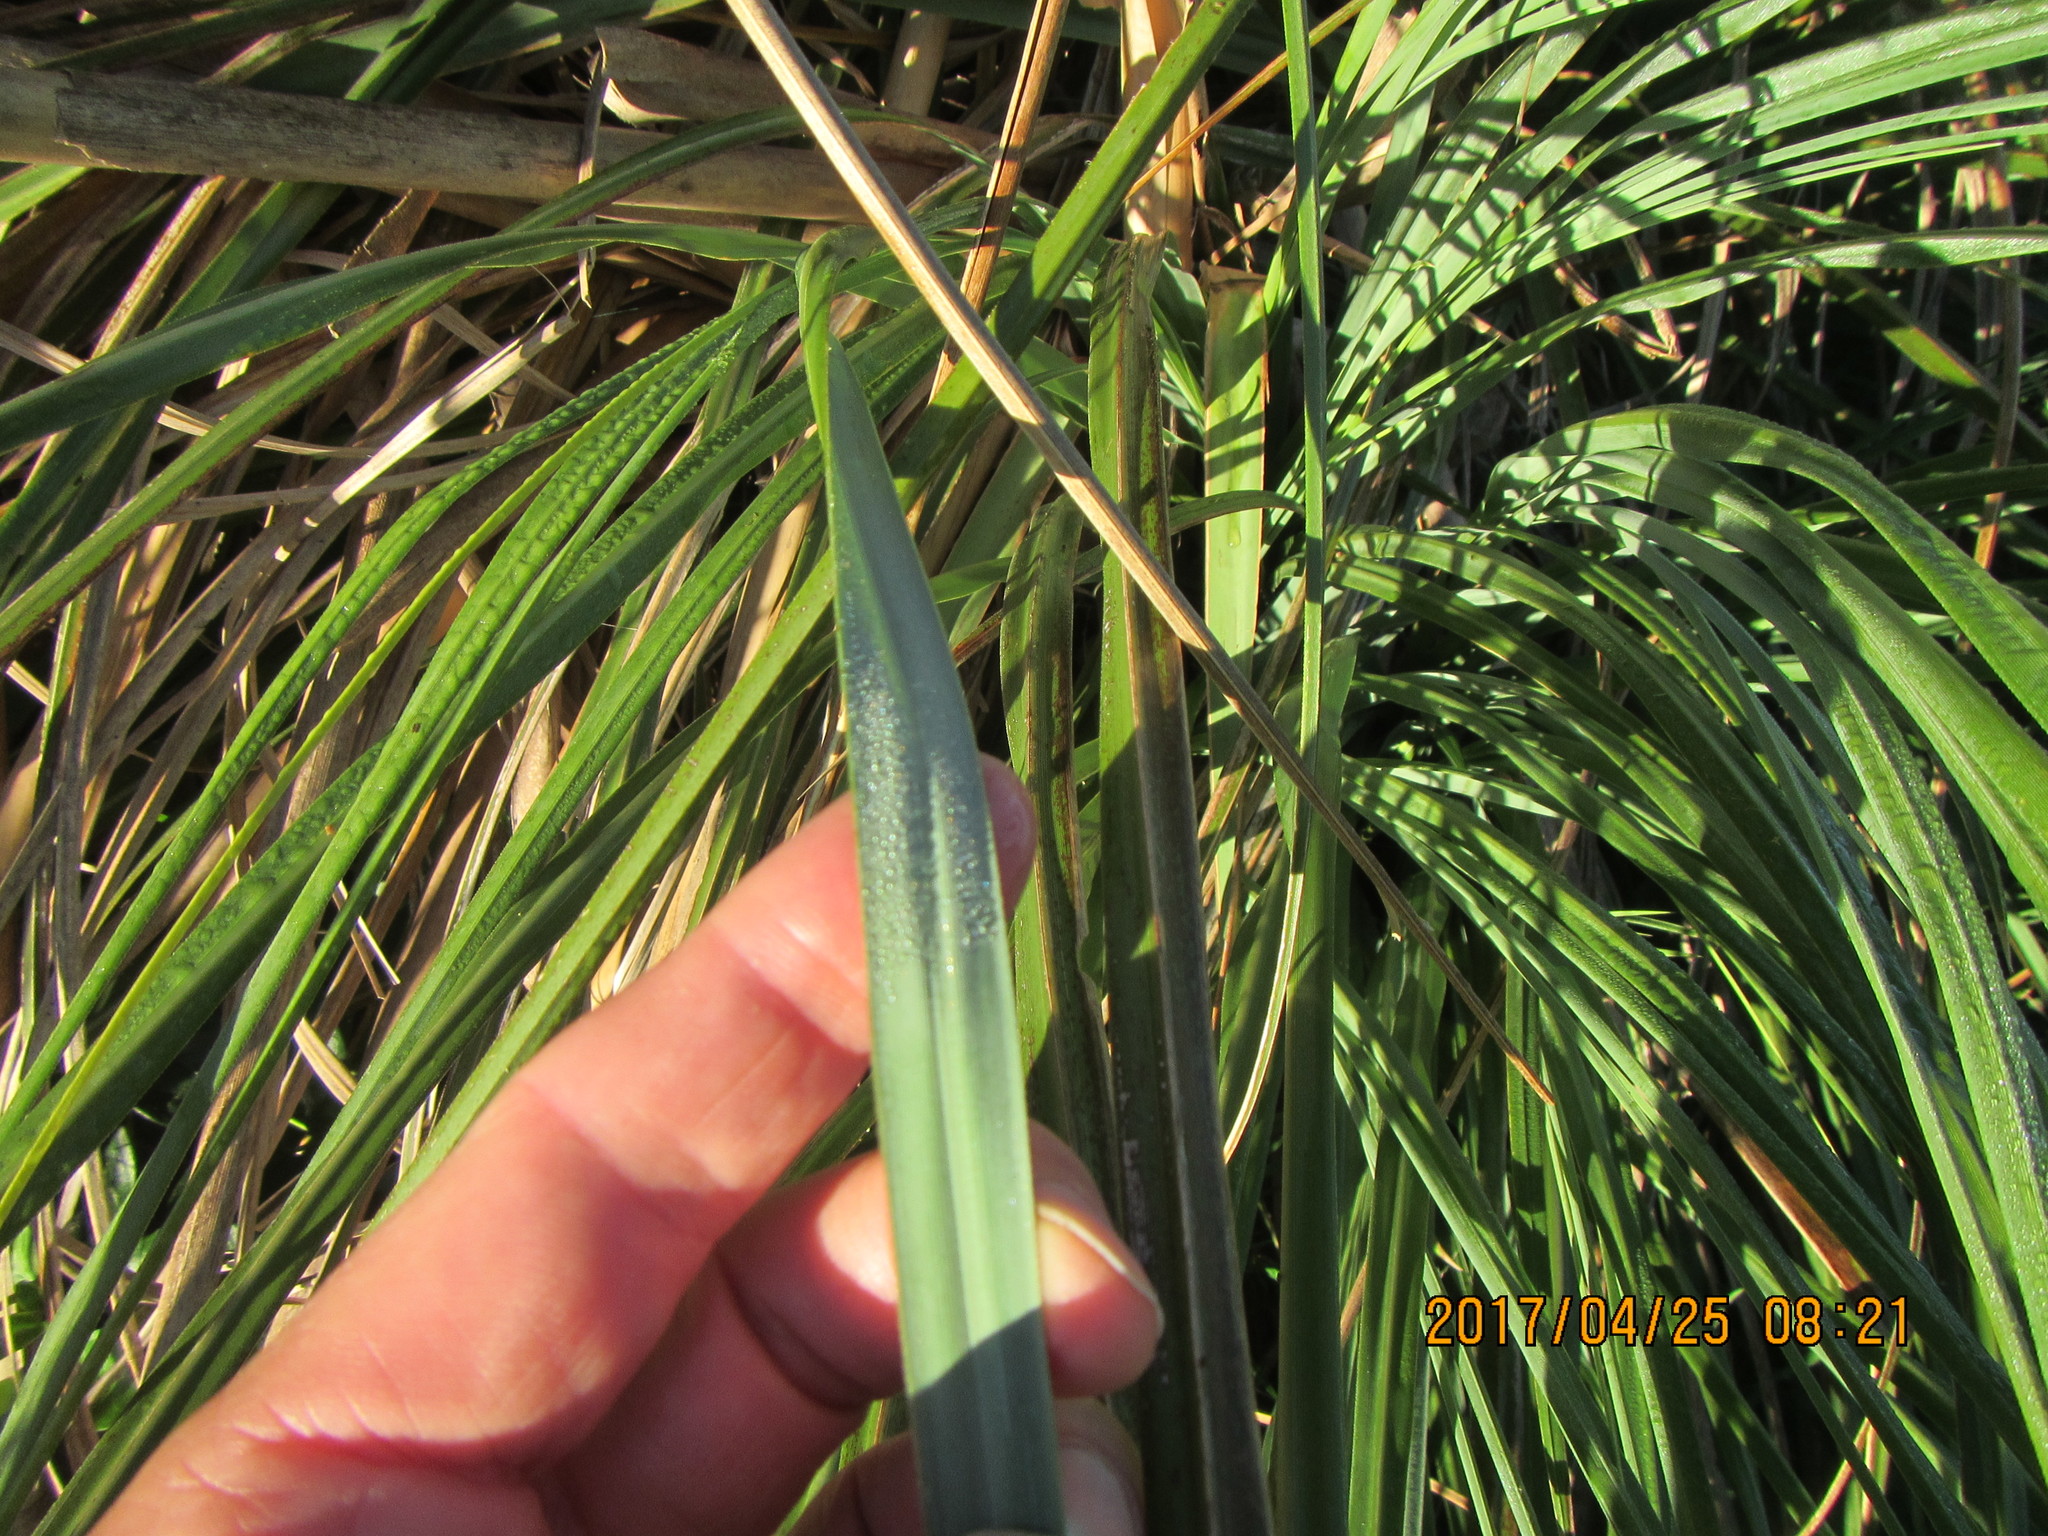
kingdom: Plantae
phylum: Tracheophyta
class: Liliopsida
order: Poales
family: Poaceae
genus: Cortaderia
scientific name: Cortaderia selloana
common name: Uruguayan pampas grass
